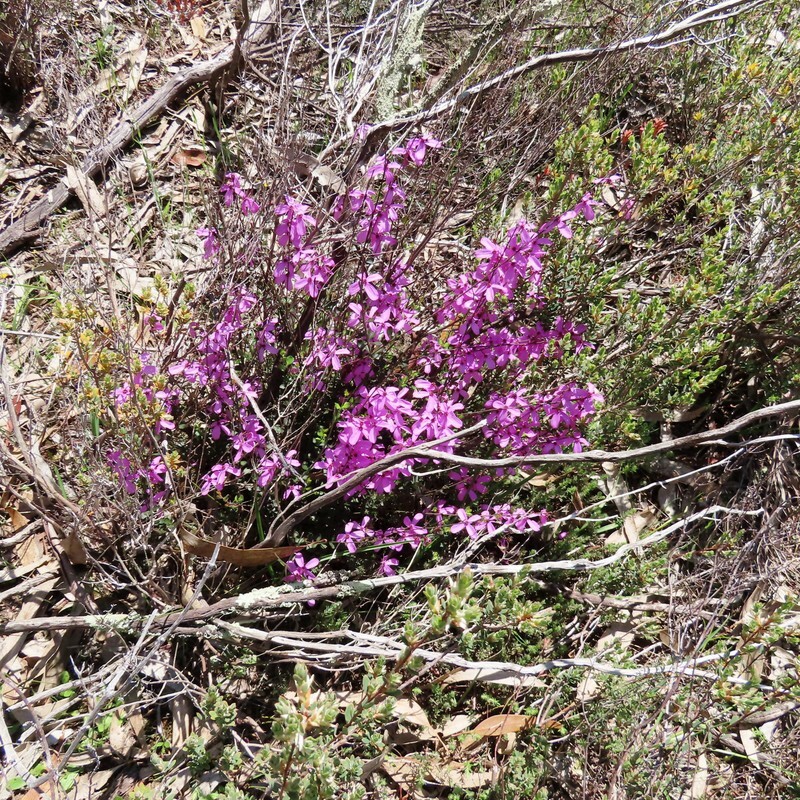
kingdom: Plantae
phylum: Tracheophyta
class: Magnoliopsida
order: Oxalidales
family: Elaeocarpaceae
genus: Tetratheca
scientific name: Tetratheca ciliata
